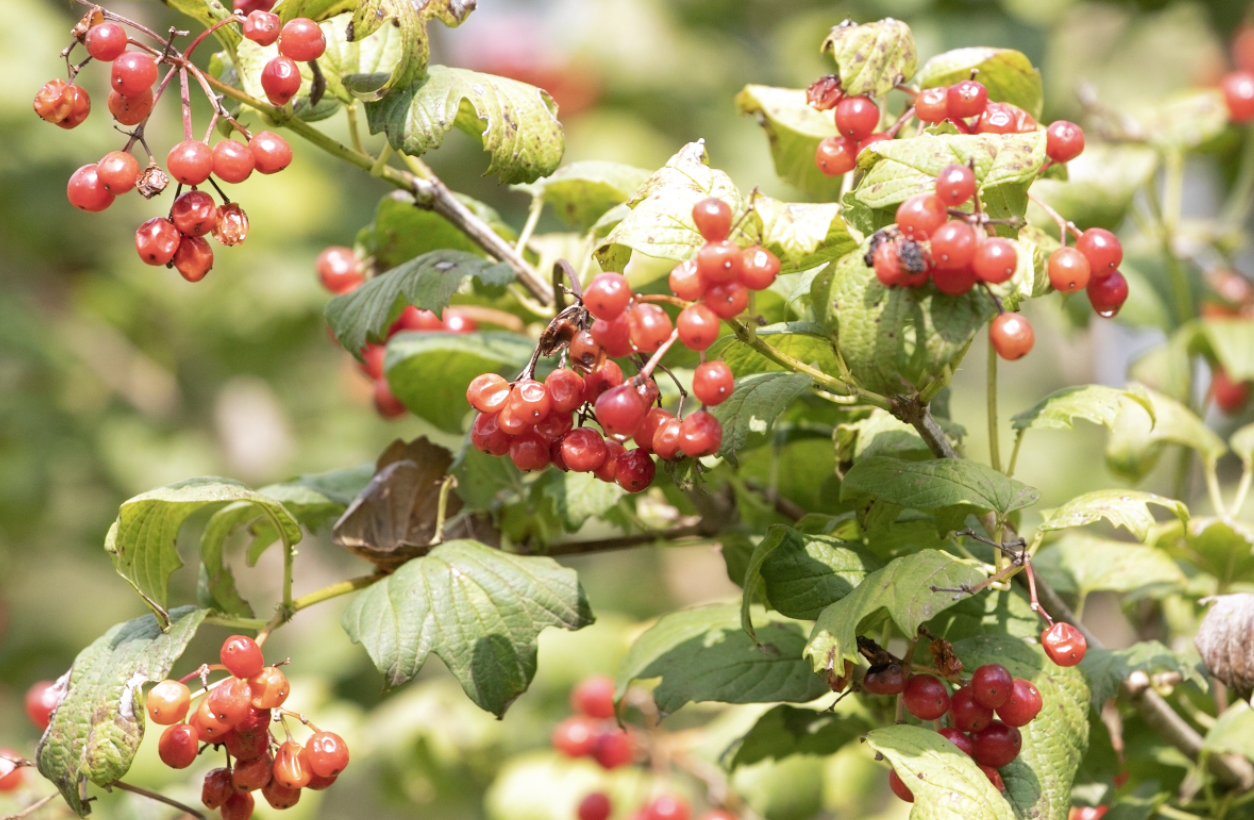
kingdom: Plantae
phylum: Tracheophyta
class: Magnoliopsida
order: Dipsacales
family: Viburnaceae
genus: Viburnum
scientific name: Viburnum opulus
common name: Guelder-rose
